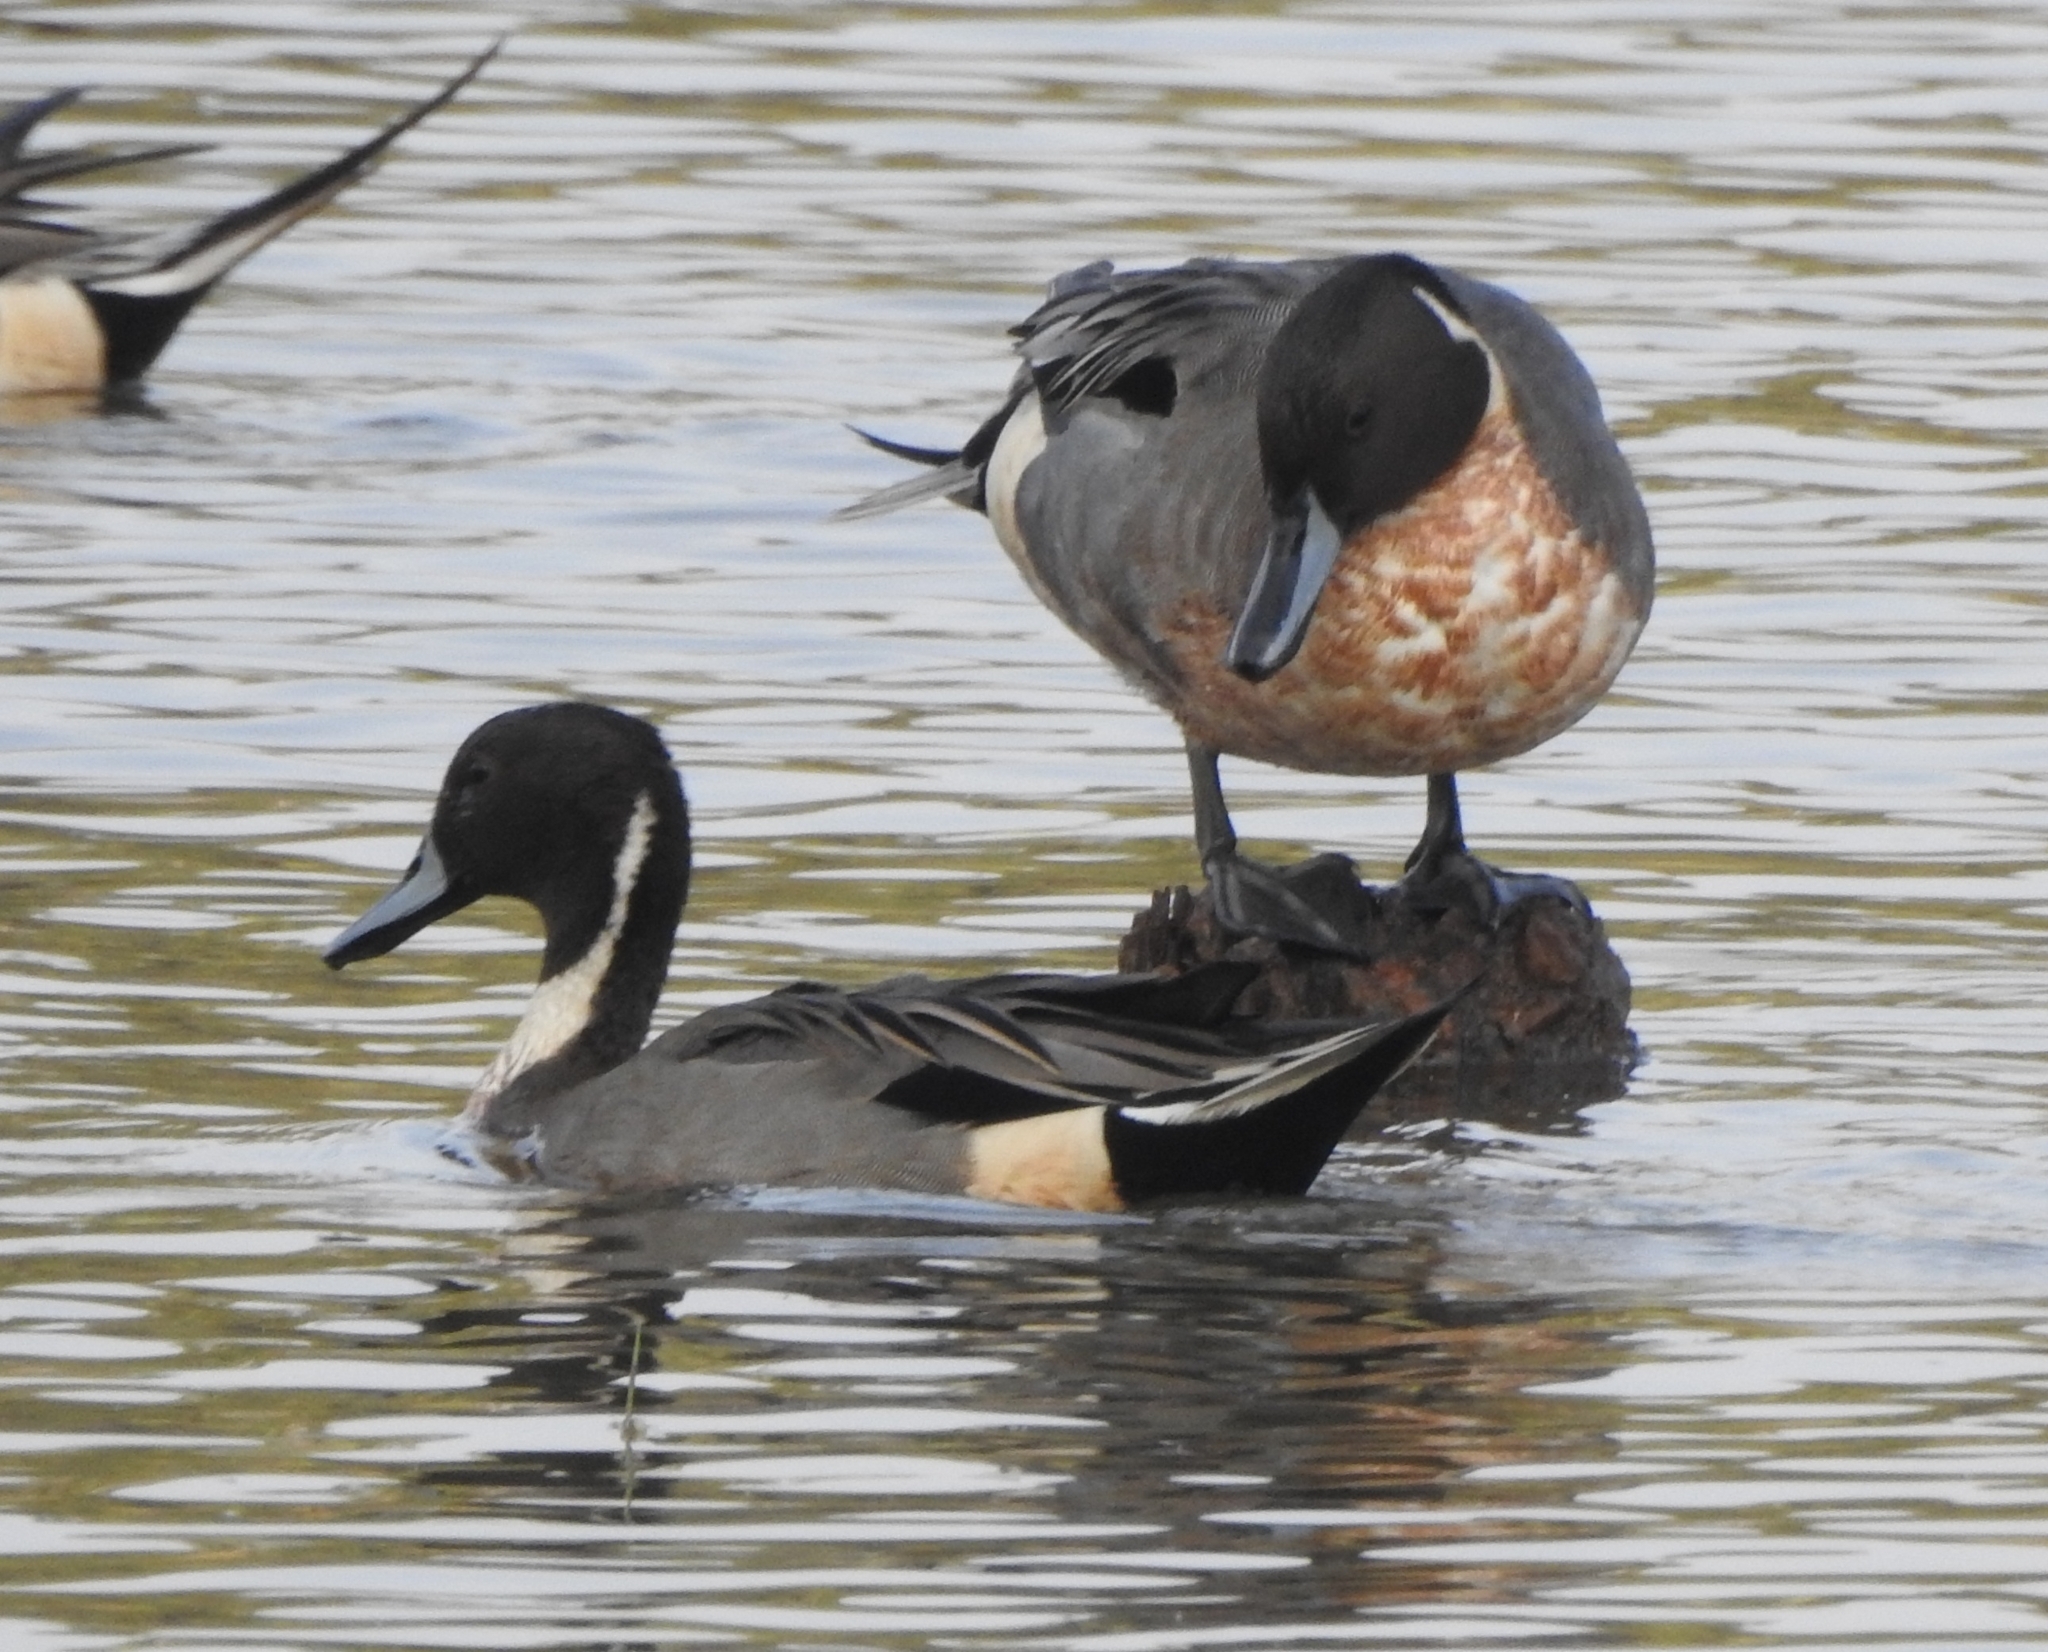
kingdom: Animalia
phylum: Chordata
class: Aves
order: Anseriformes
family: Anatidae
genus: Anas
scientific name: Anas acuta
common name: Northern pintail
